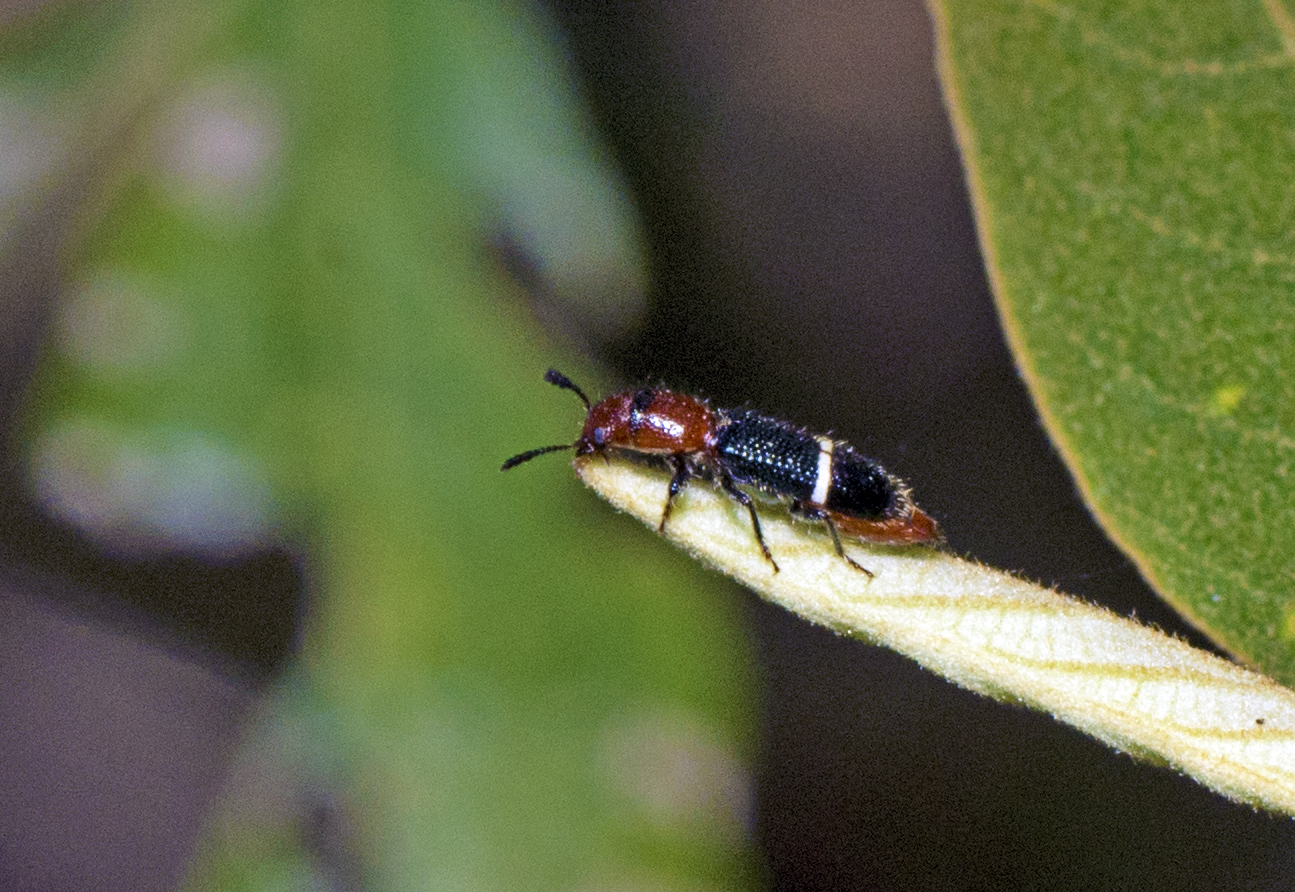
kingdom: Animalia
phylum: Arthropoda
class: Insecta
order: Coleoptera
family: Cleridae
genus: Tarsostenus
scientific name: Tarsostenus carus
